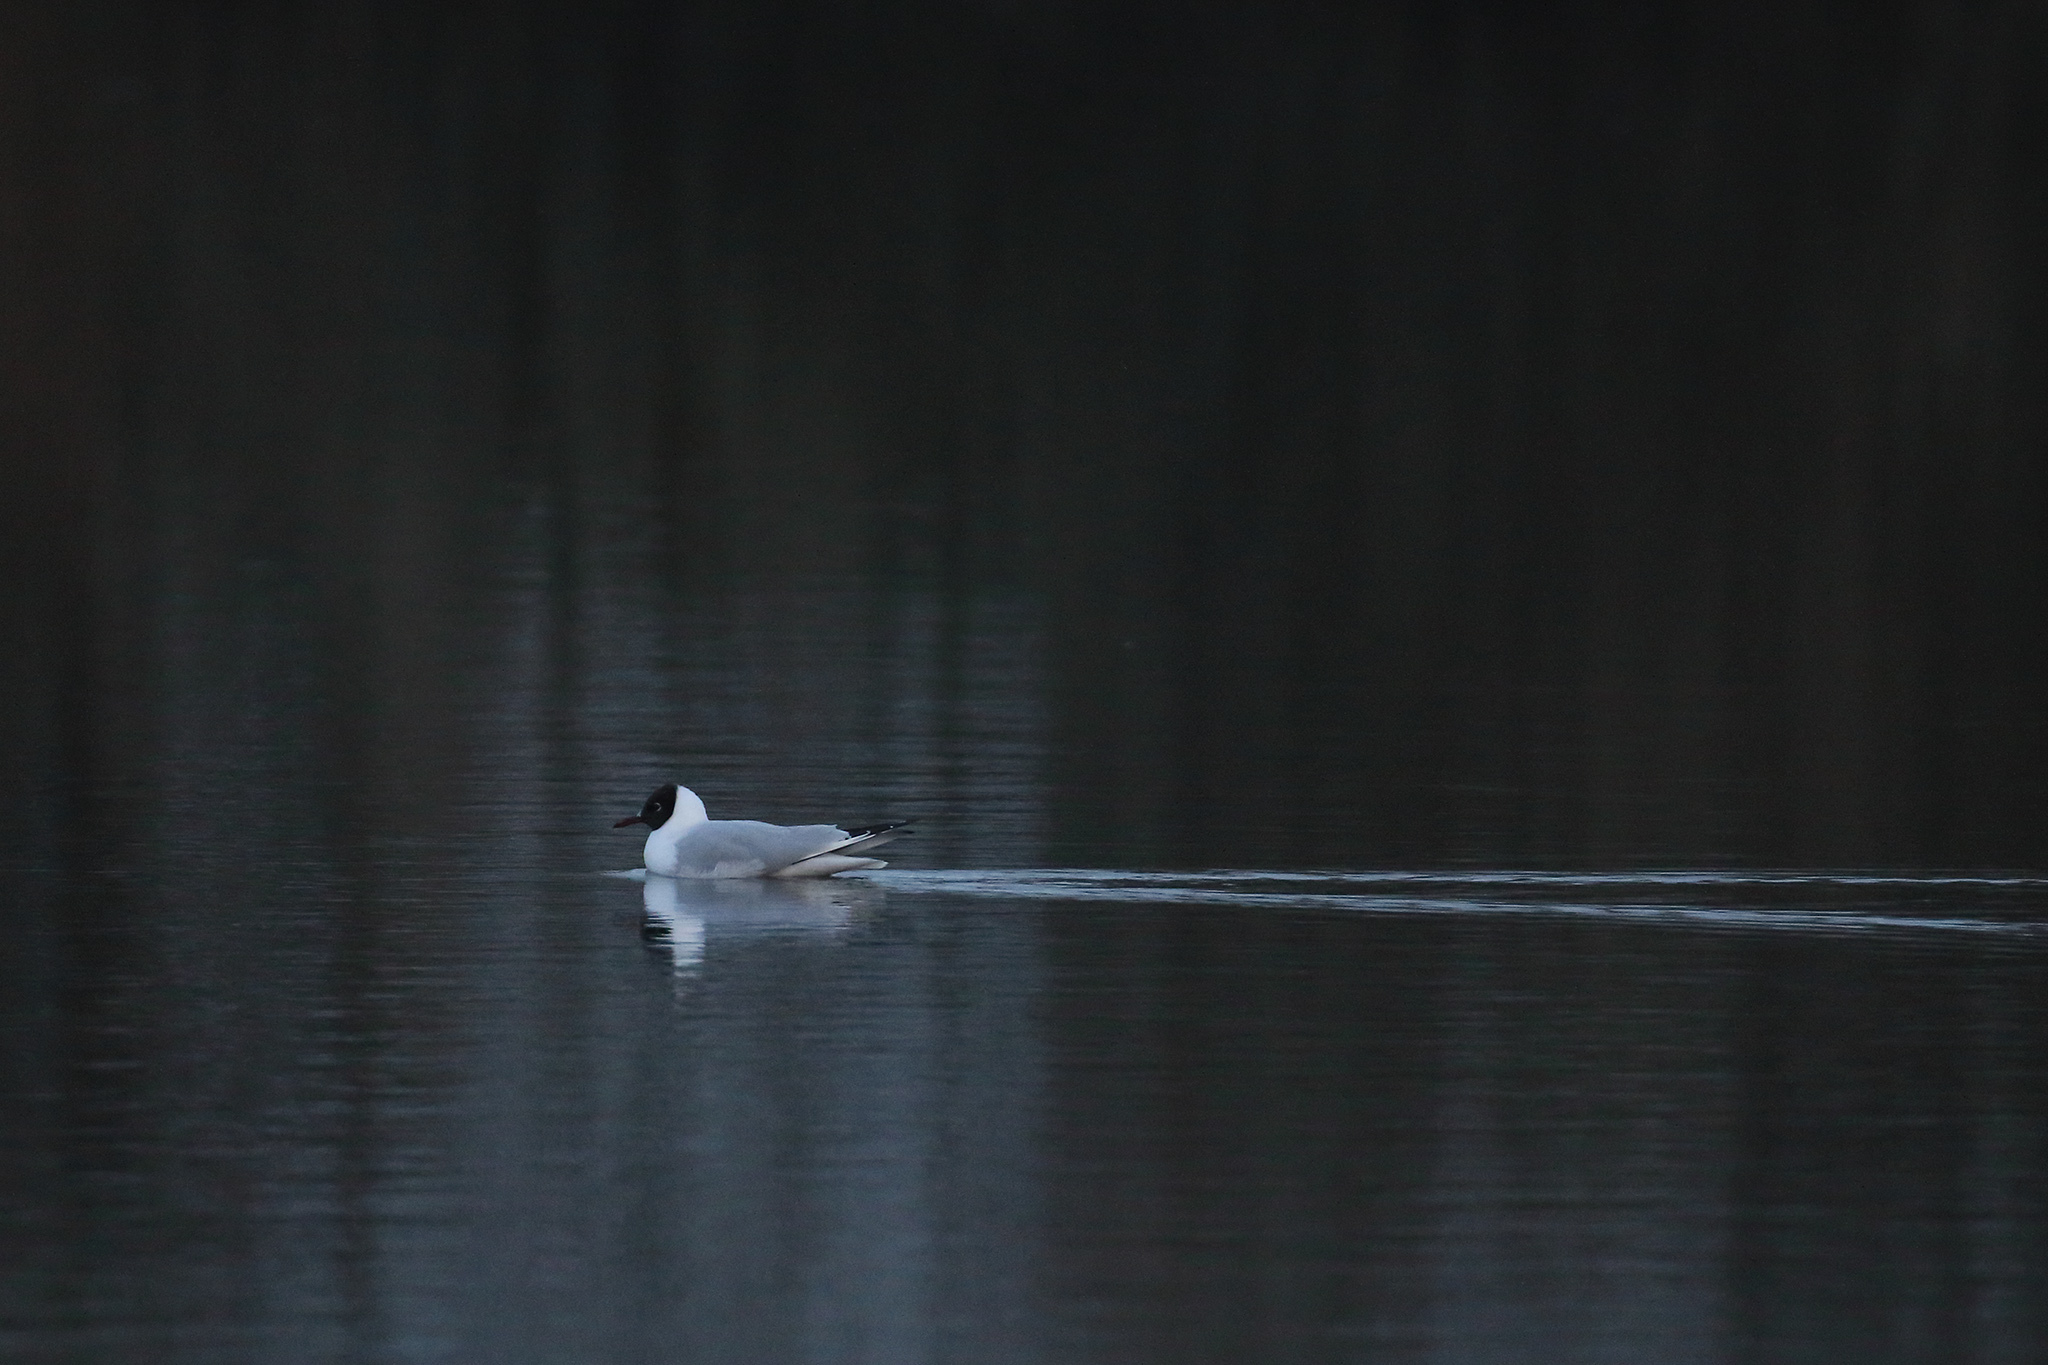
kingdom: Animalia
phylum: Chordata
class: Aves
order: Charadriiformes
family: Laridae
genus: Chroicocephalus
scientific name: Chroicocephalus ridibundus
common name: Black-headed gull
